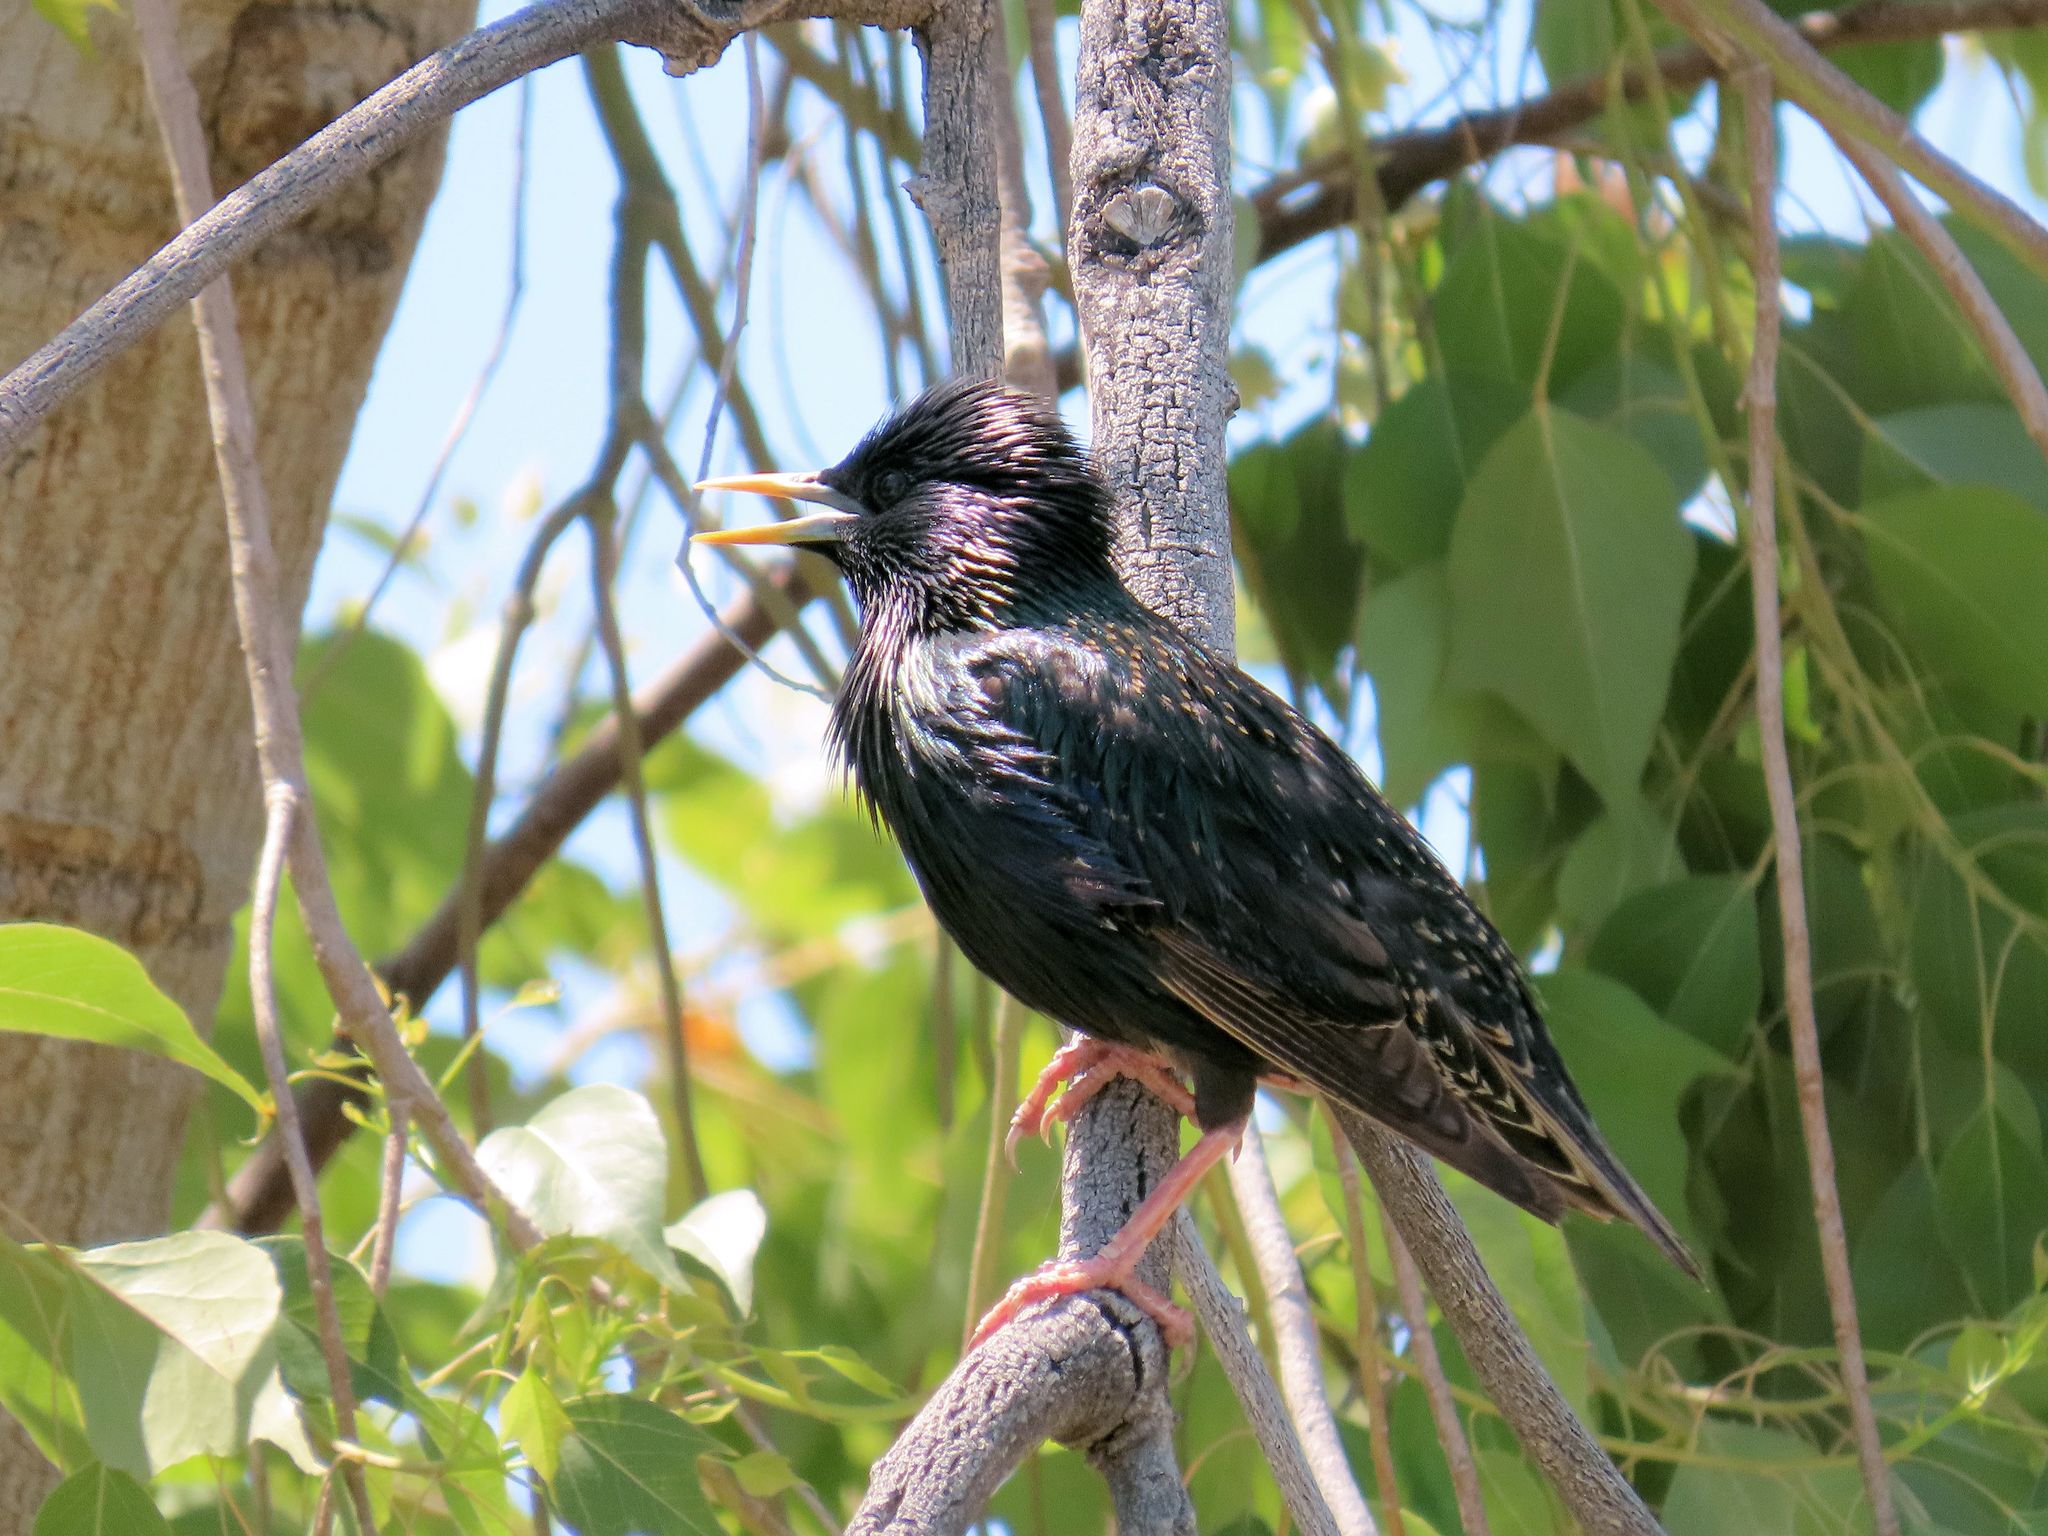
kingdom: Animalia
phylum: Chordata
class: Aves
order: Passeriformes
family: Sturnidae
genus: Sturnus
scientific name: Sturnus vulgaris
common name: Common starling
